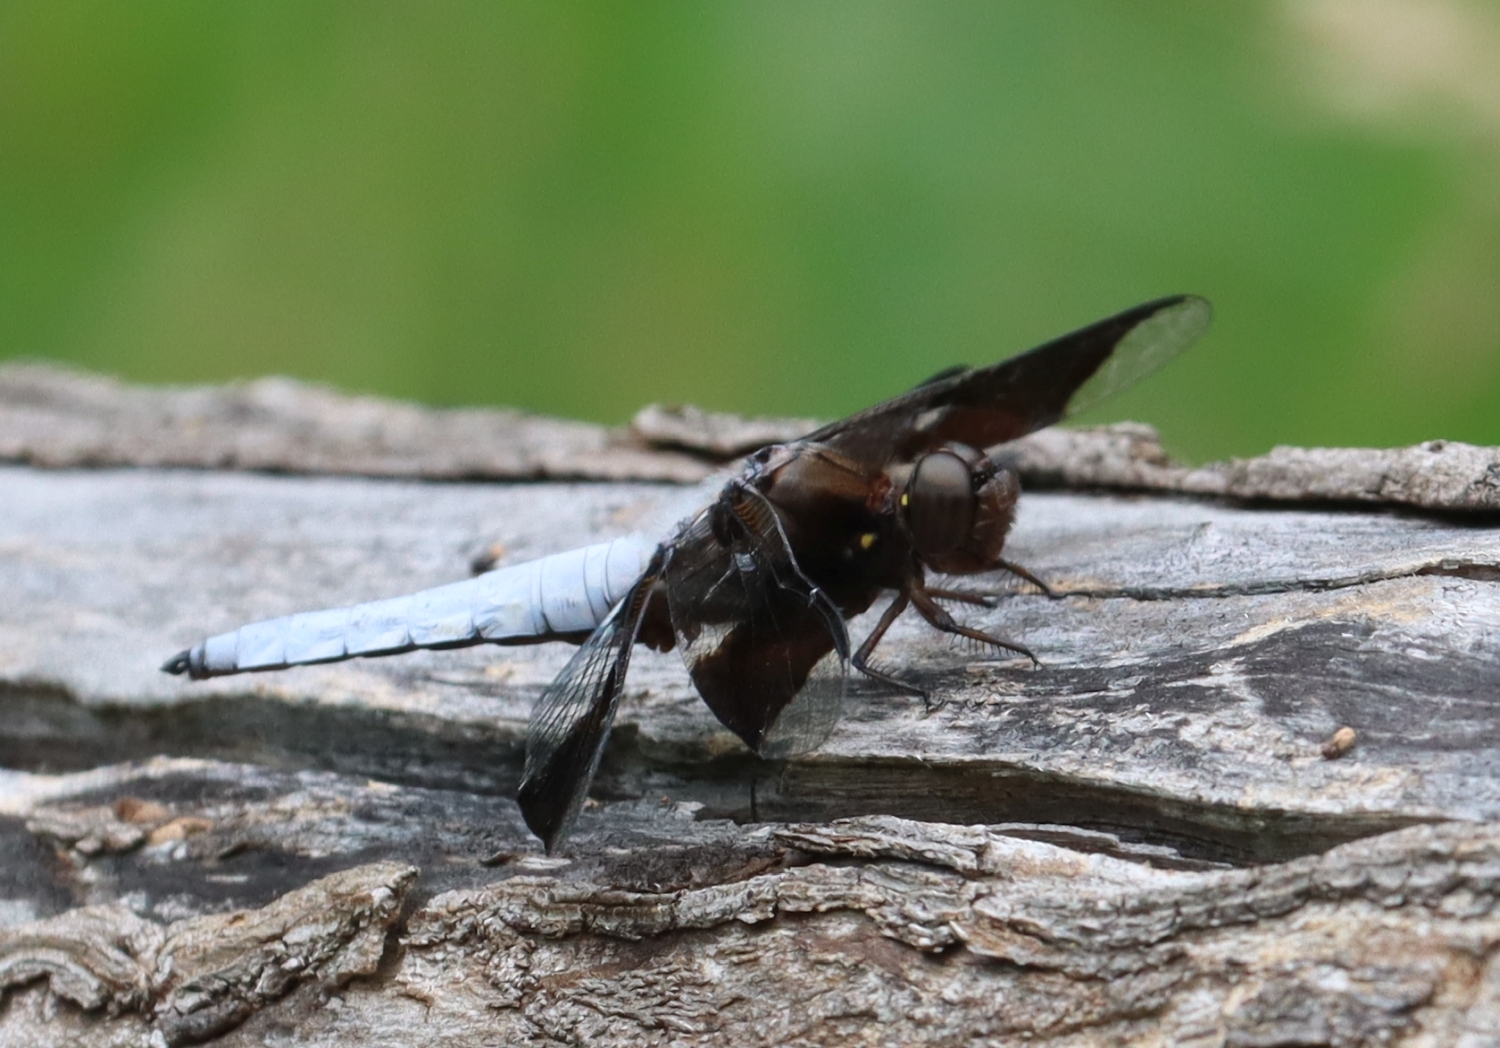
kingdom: Animalia
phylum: Arthropoda
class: Insecta
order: Odonata
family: Libellulidae
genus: Plathemis
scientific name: Plathemis lydia
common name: Common whitetail
